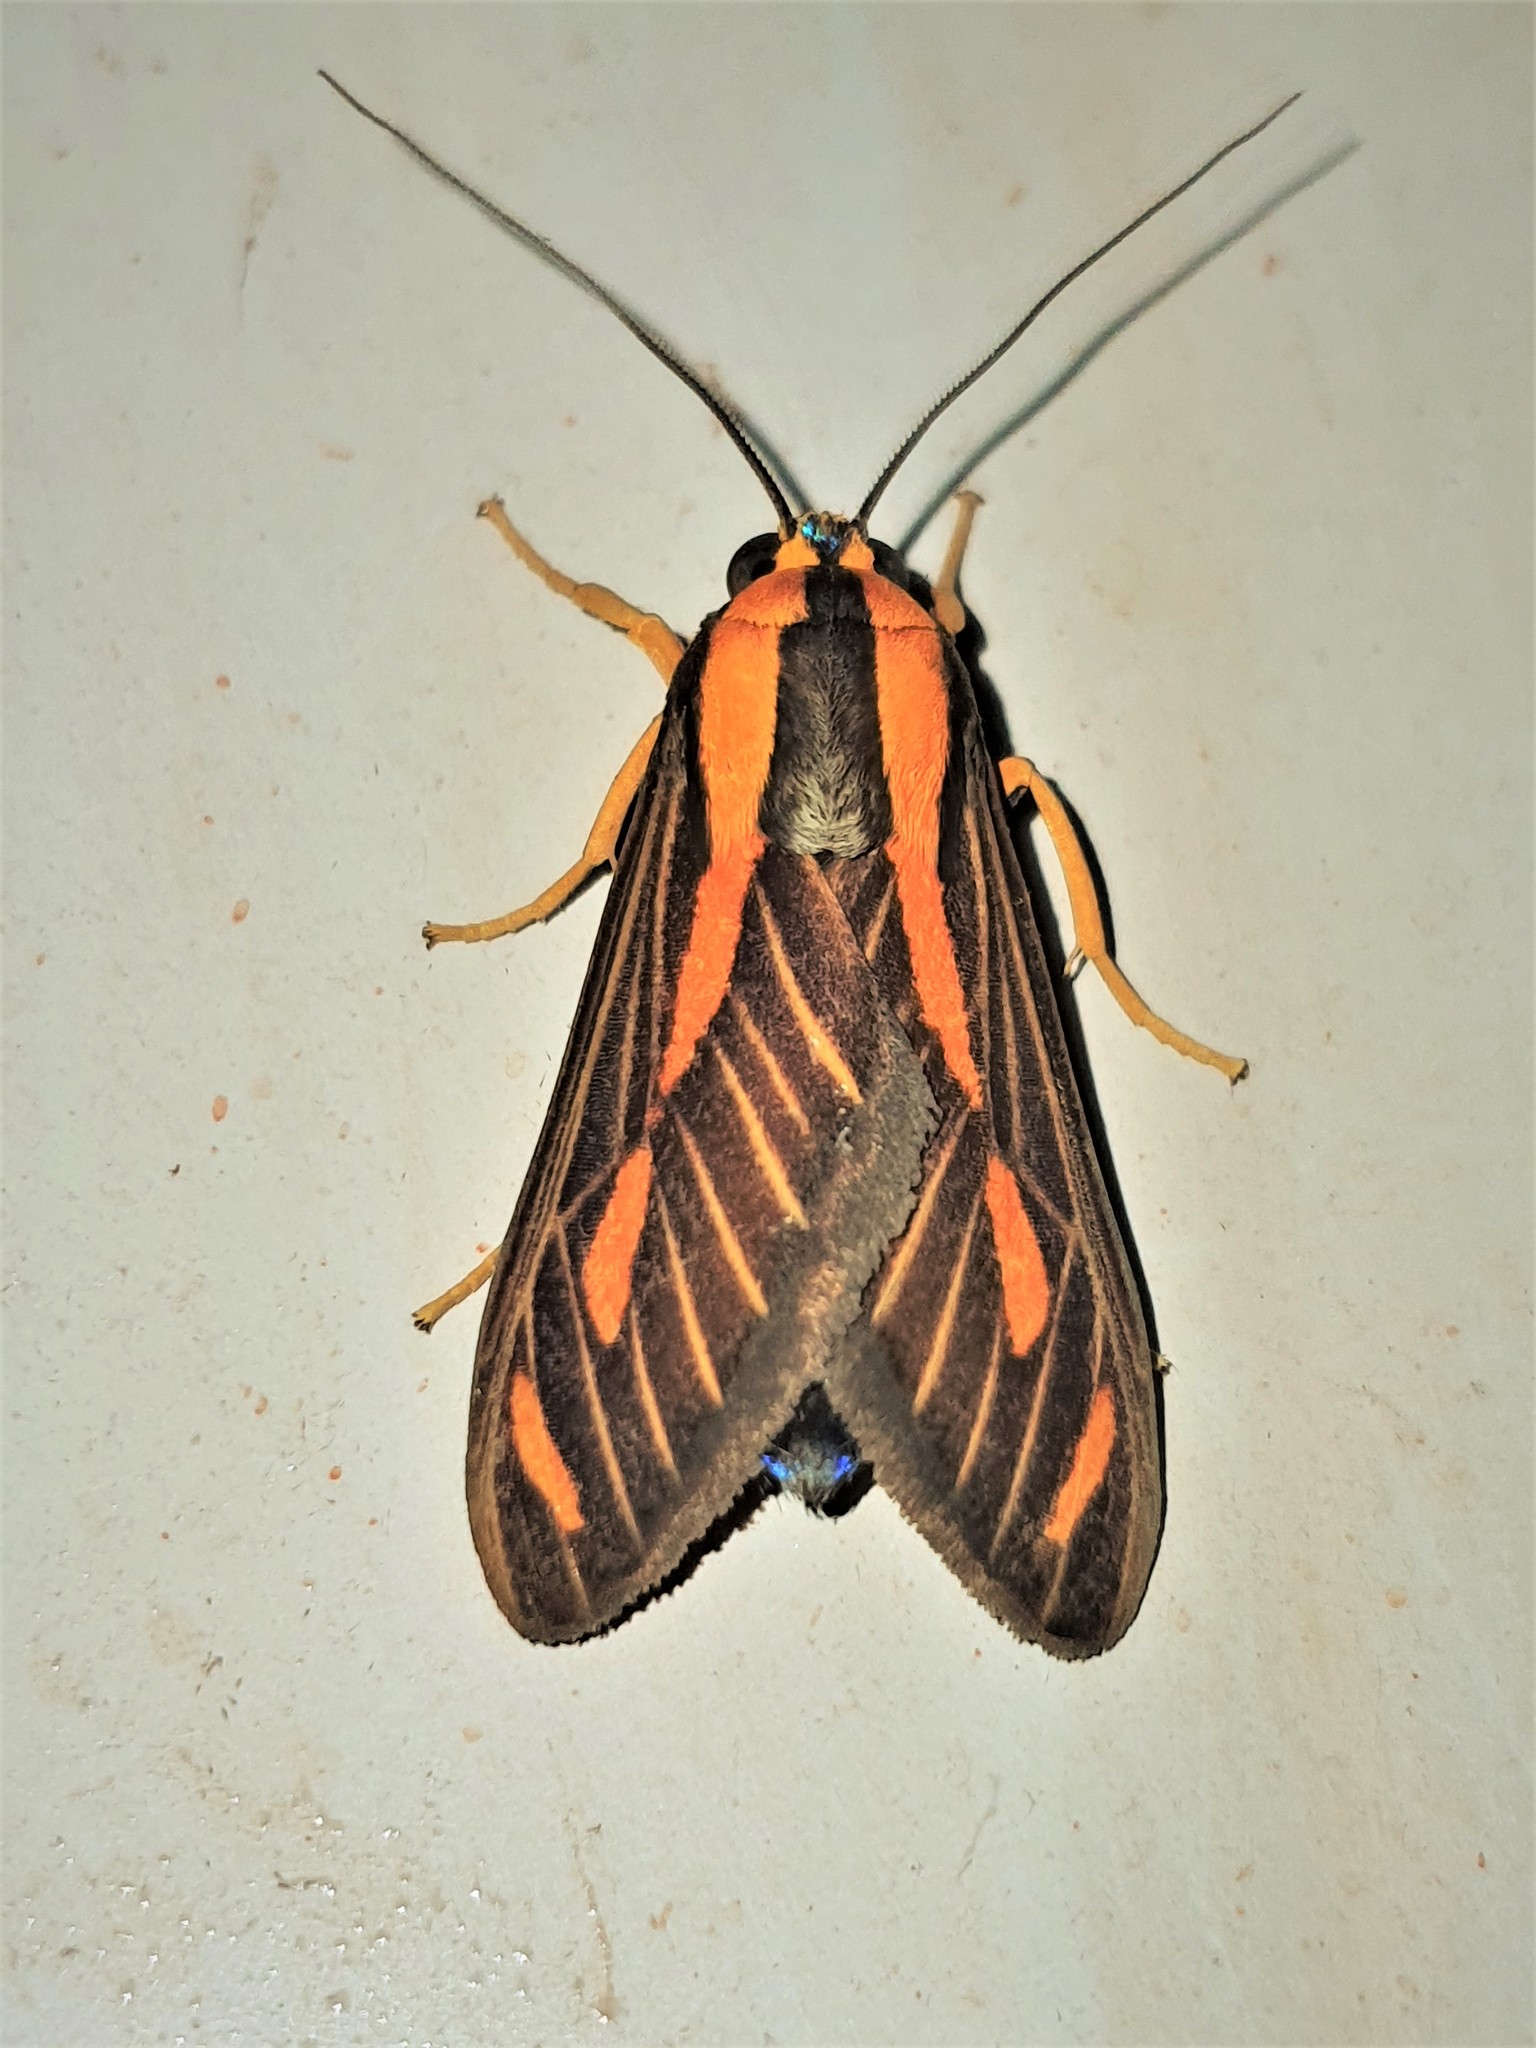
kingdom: Animalia
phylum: Arthropoda
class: Insecta
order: Lepidoptera
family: Erebidae
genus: Ormetica
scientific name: Ormetica sypilus
